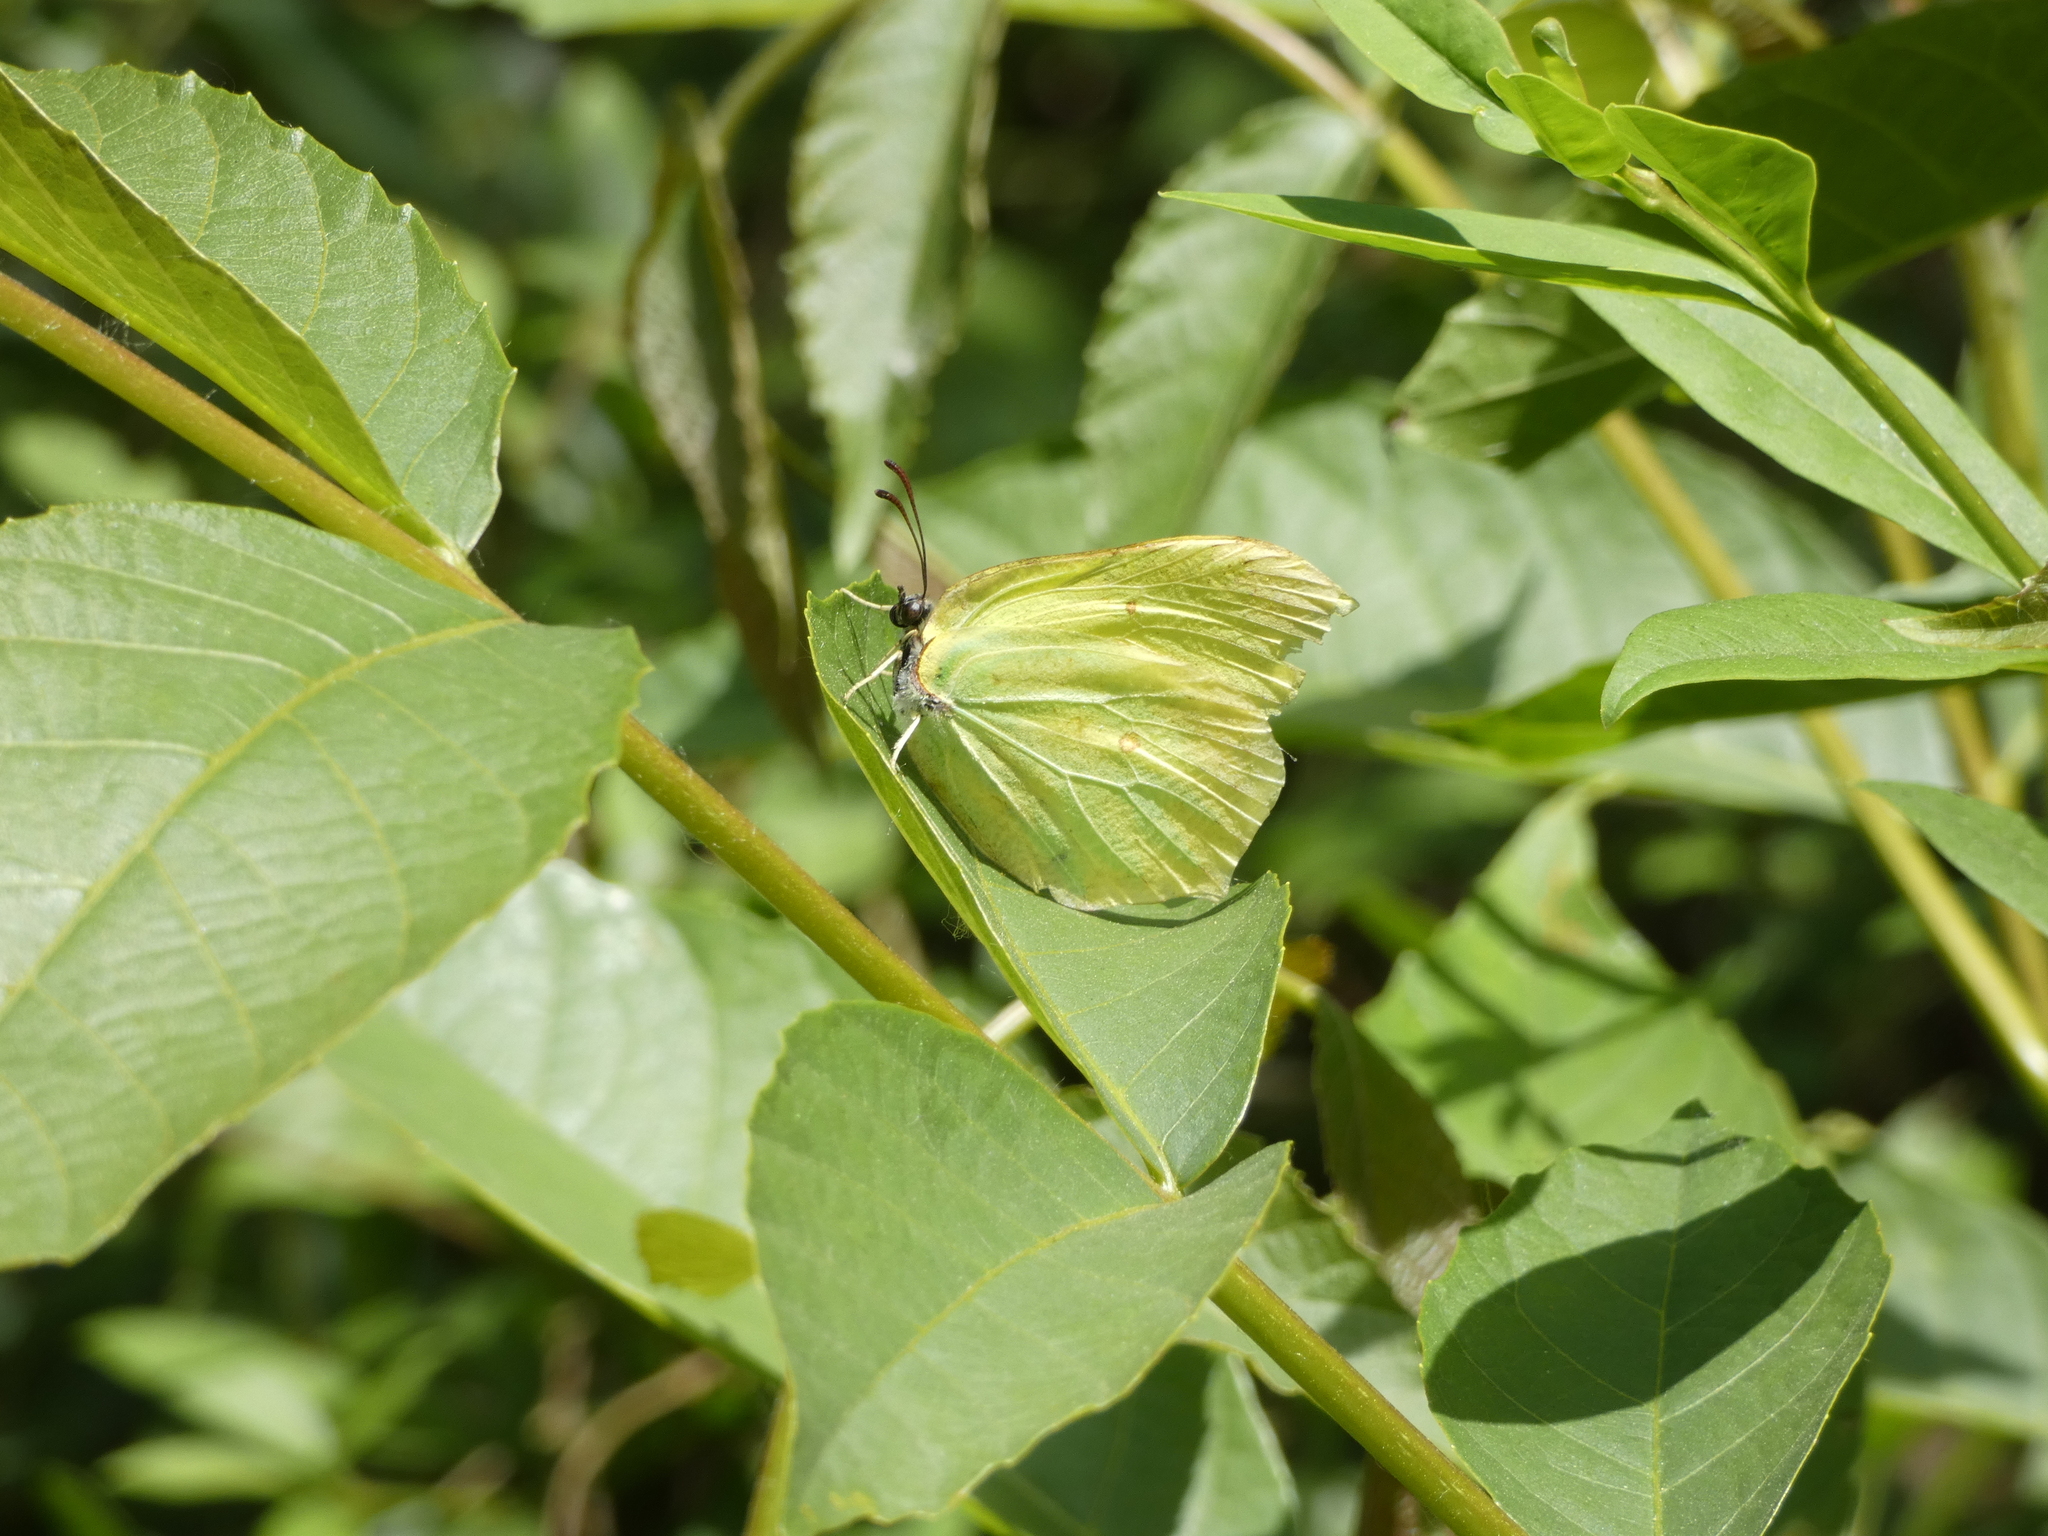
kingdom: Animalia
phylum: Arthropoda
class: Insecta
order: Lepidoptera
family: Pieridae
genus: Gonepteryx
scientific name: Gonepteryx rhamni
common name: Brimstone
